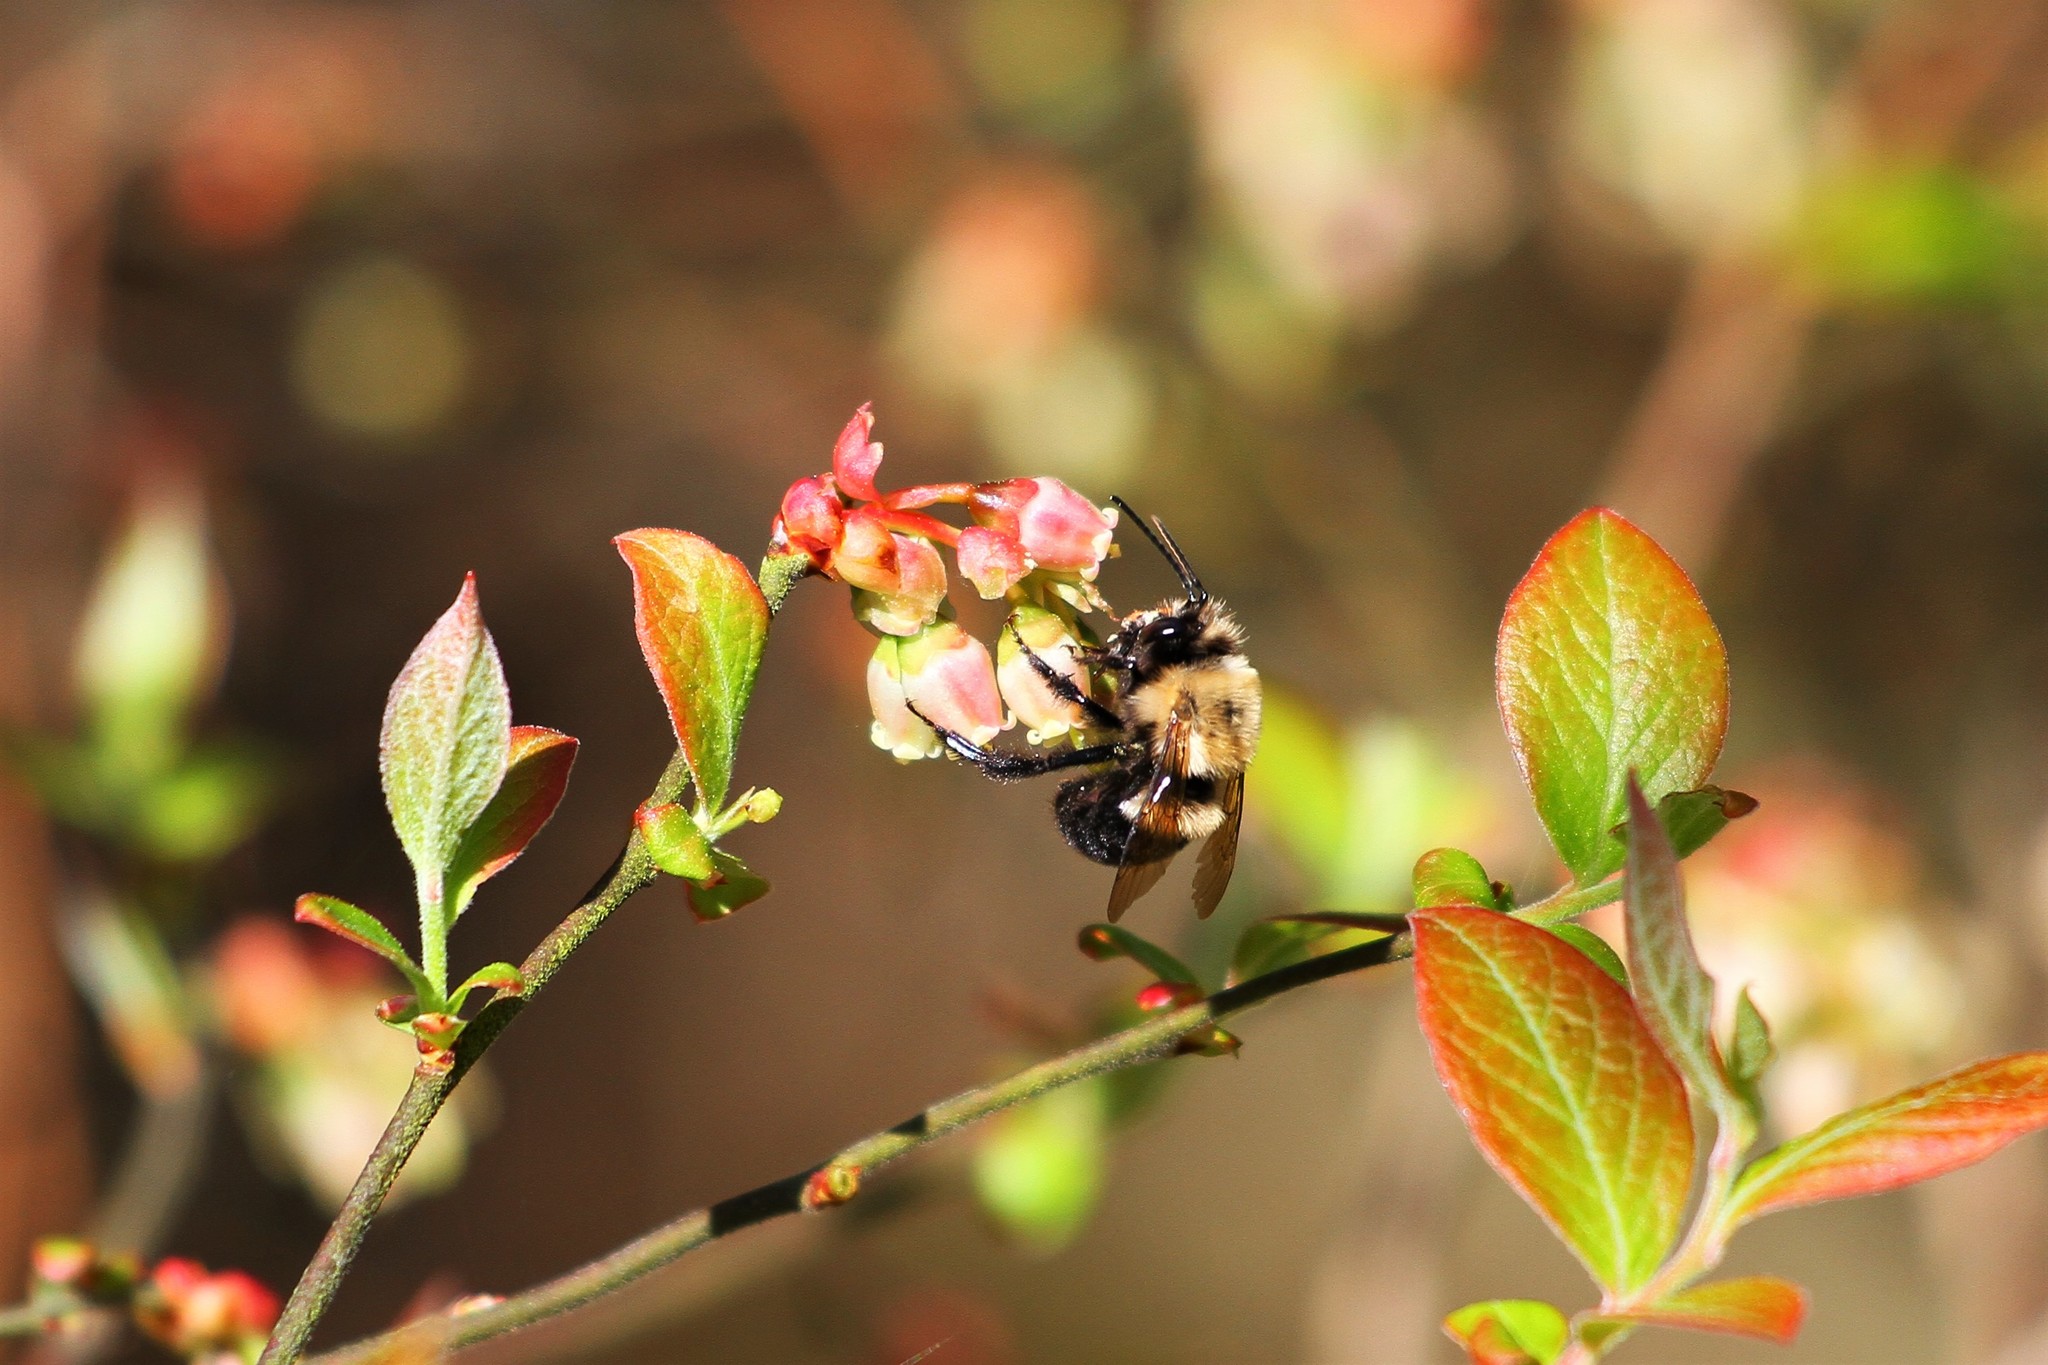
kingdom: Animalia
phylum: Arthropoda
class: Insecta
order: Hymenoptera
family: Apidae
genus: Habropoda
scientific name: Habropoda laboriosa
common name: Southeastern blueberry bee
